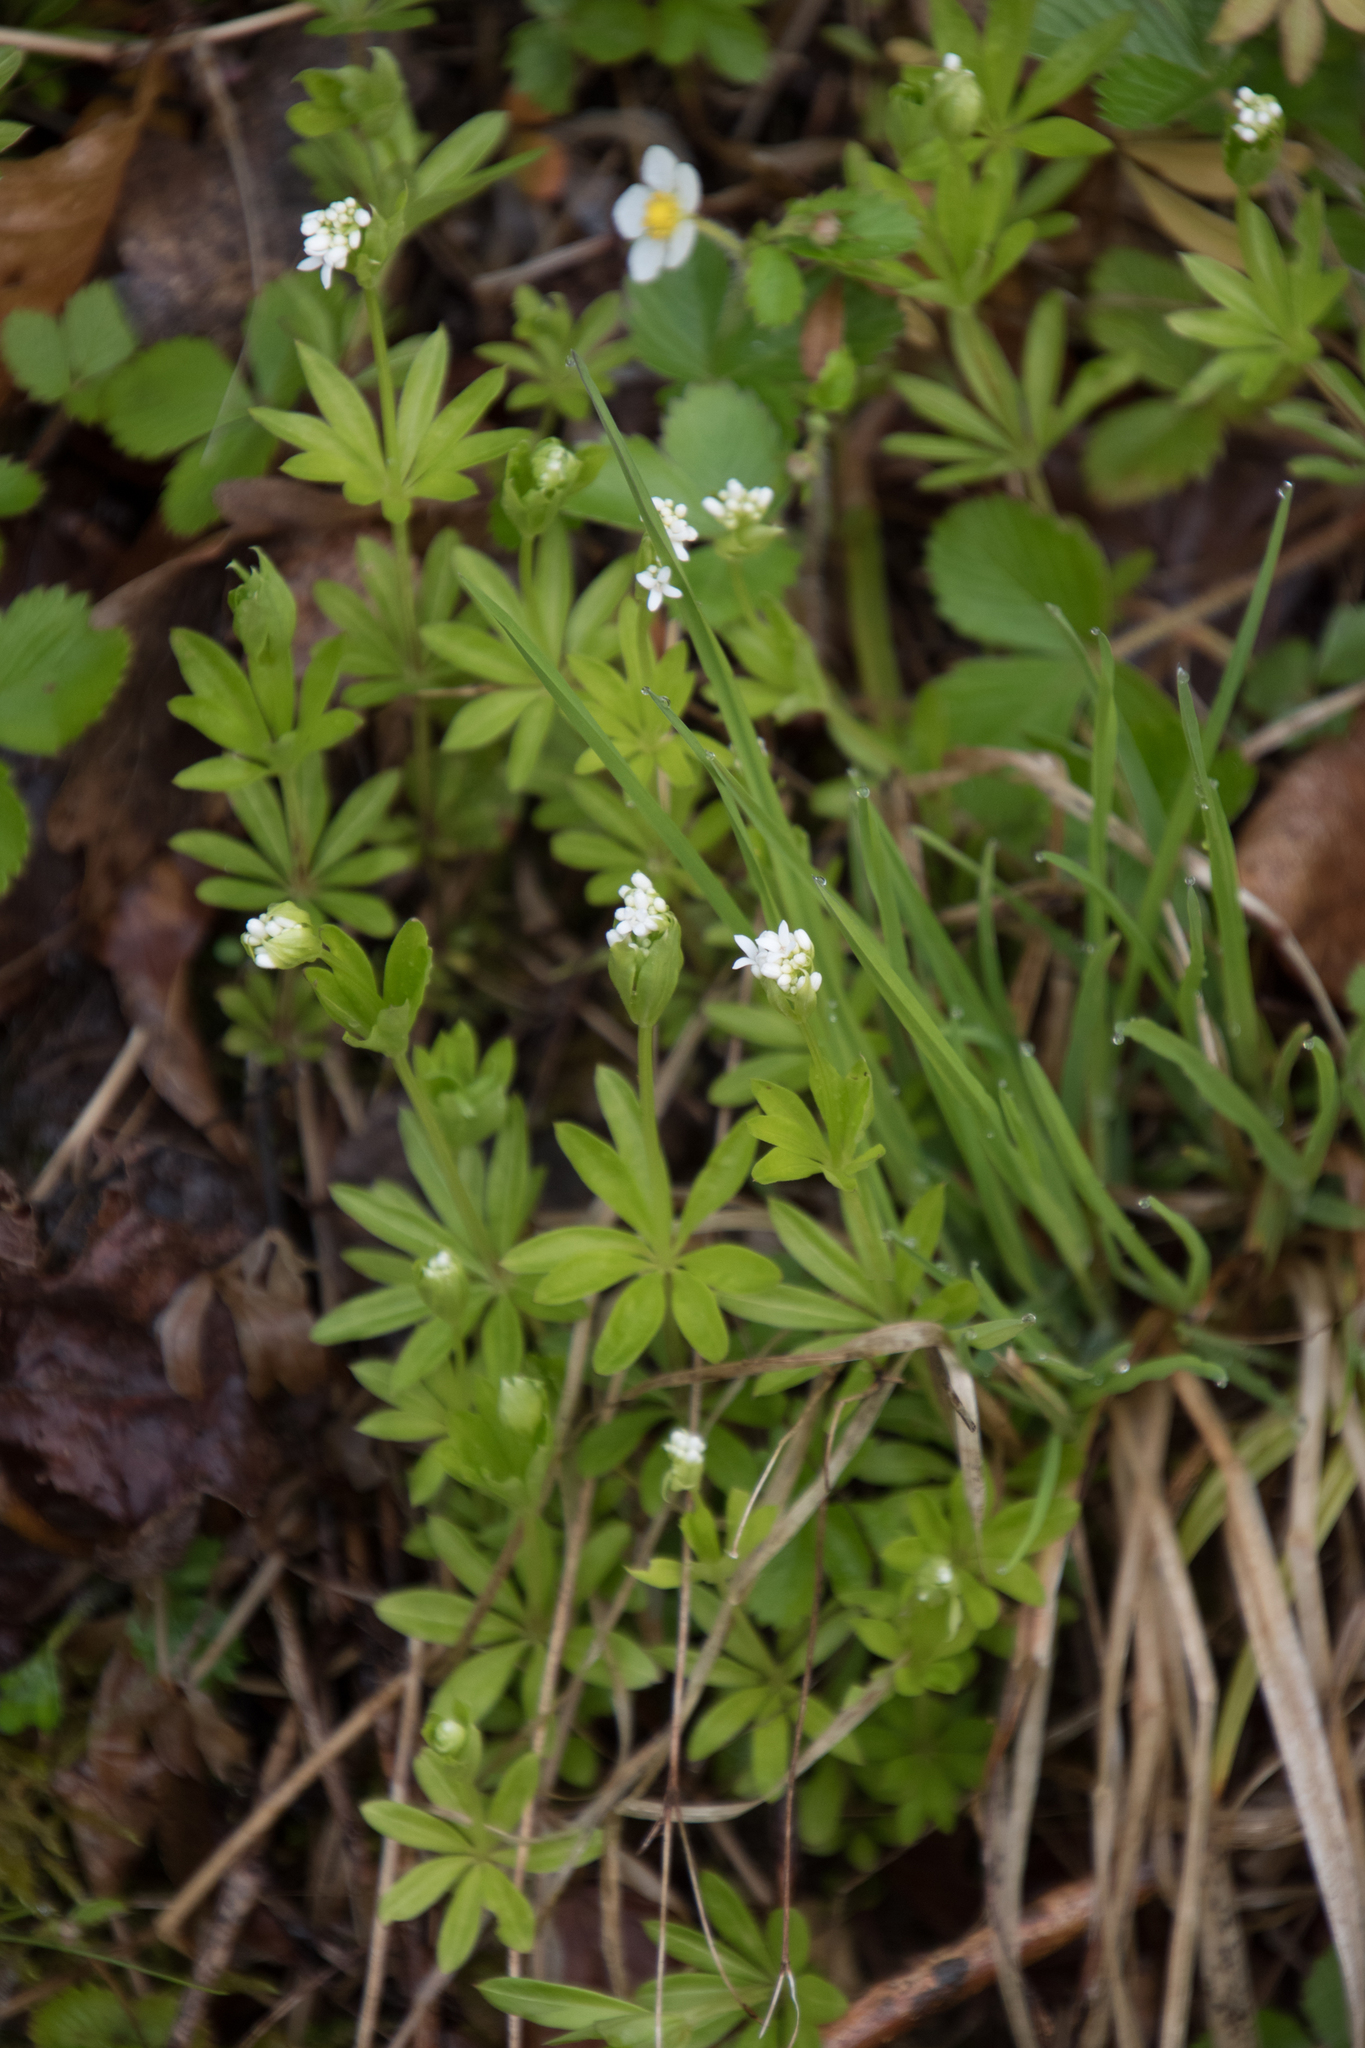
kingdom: Plantae
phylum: Tracheophyta
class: Magnoliopsida
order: Gentianales
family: Rubiaceae
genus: Galium
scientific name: Galium odoratum
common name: Sweet woodruff
